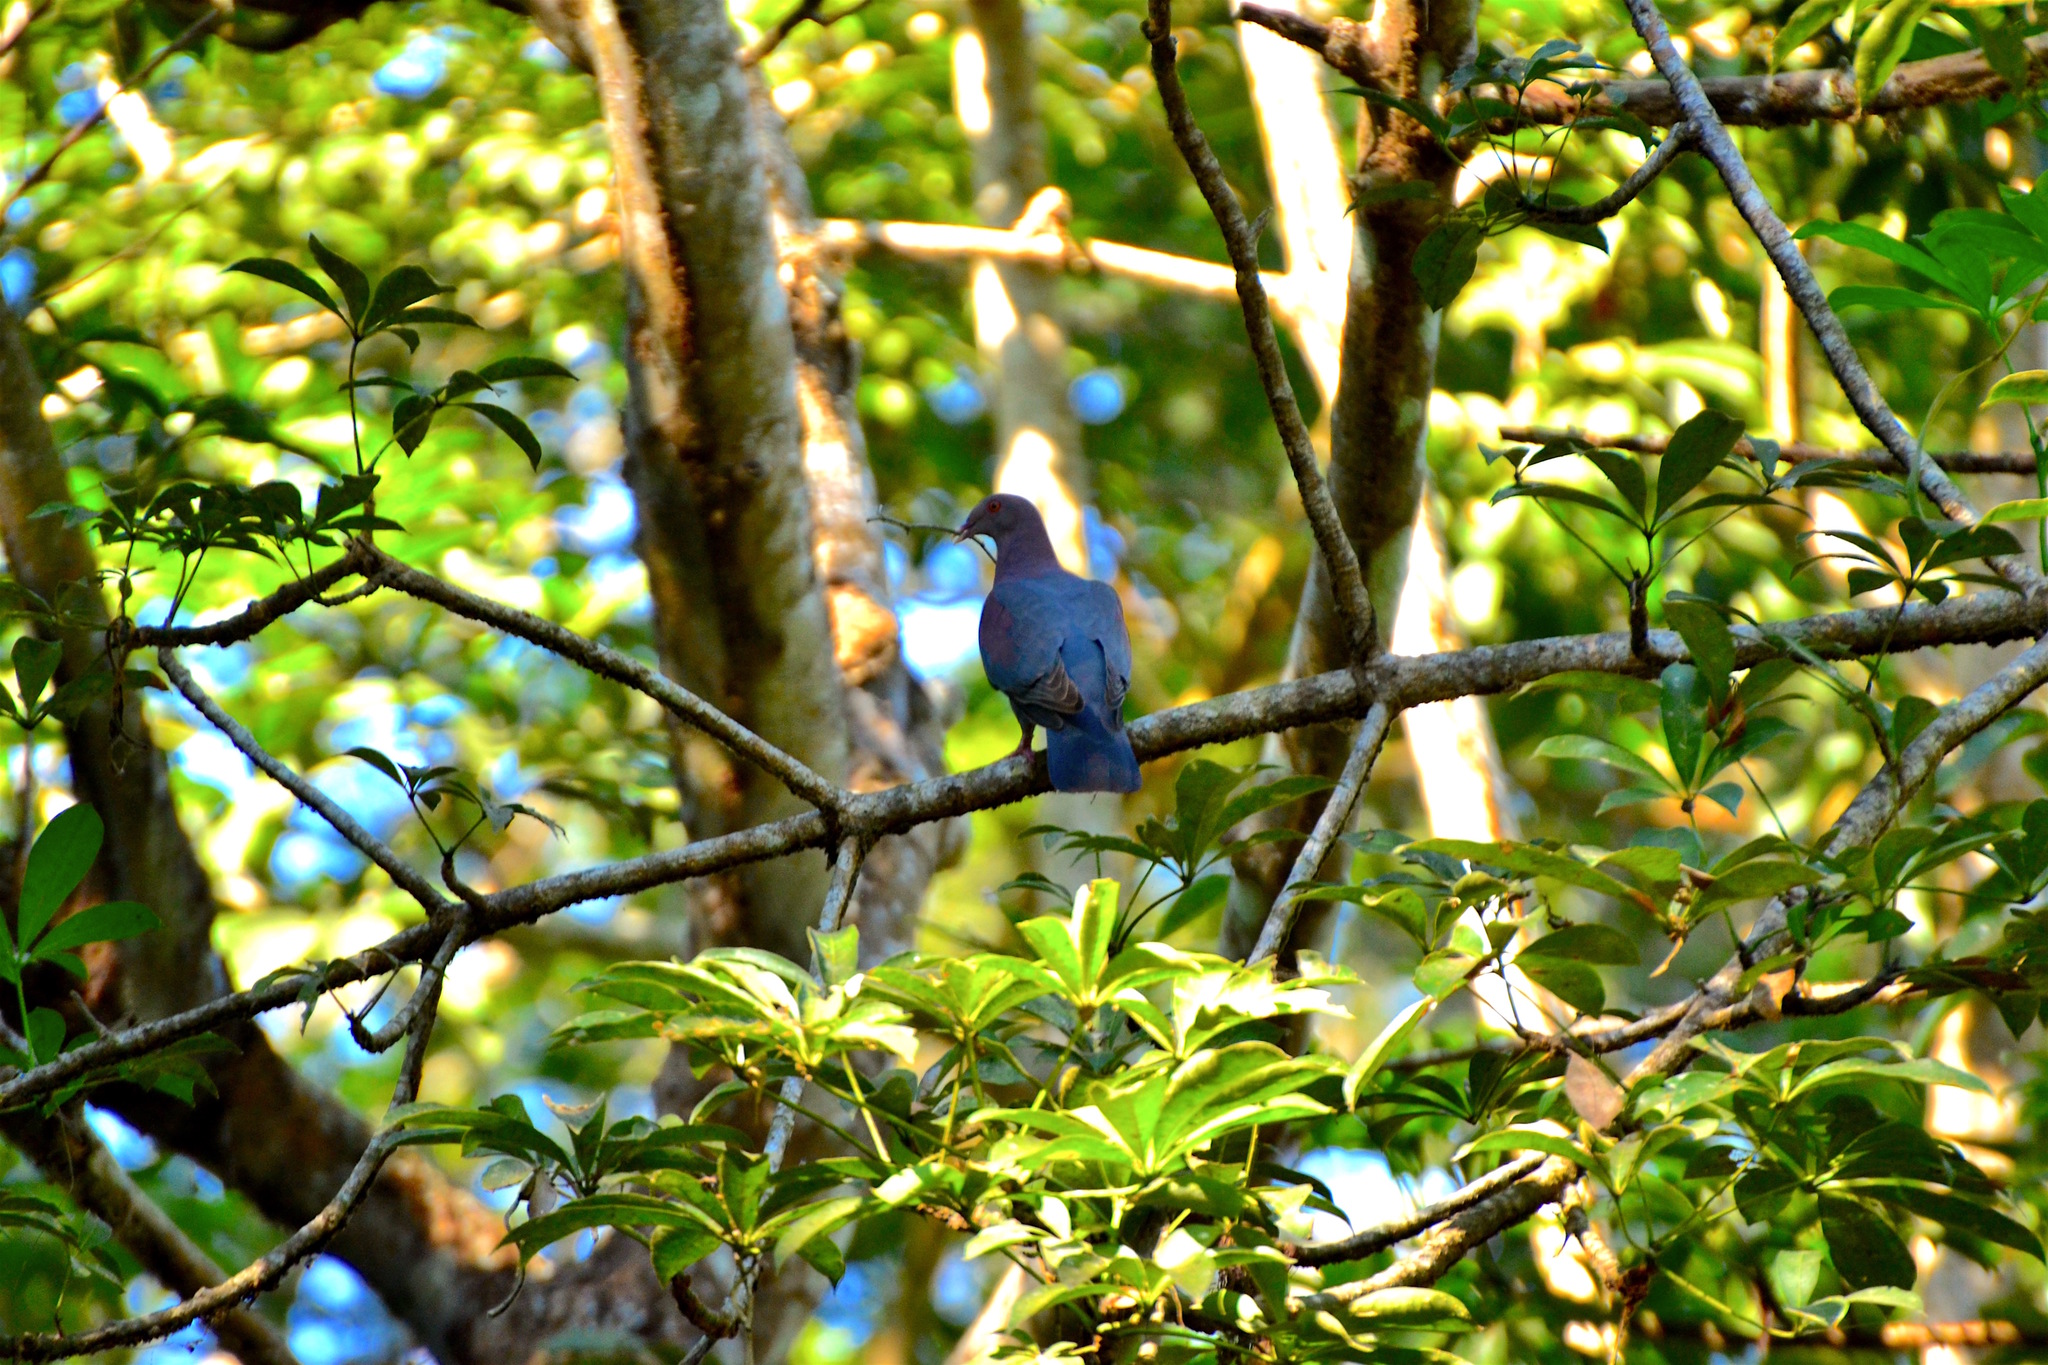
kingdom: Animalia
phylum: Chordata
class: Aves
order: Columbiformes
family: Columbidae
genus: Patagioenas
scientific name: Patagioenas flavirostris
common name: Red-billed pigeon
